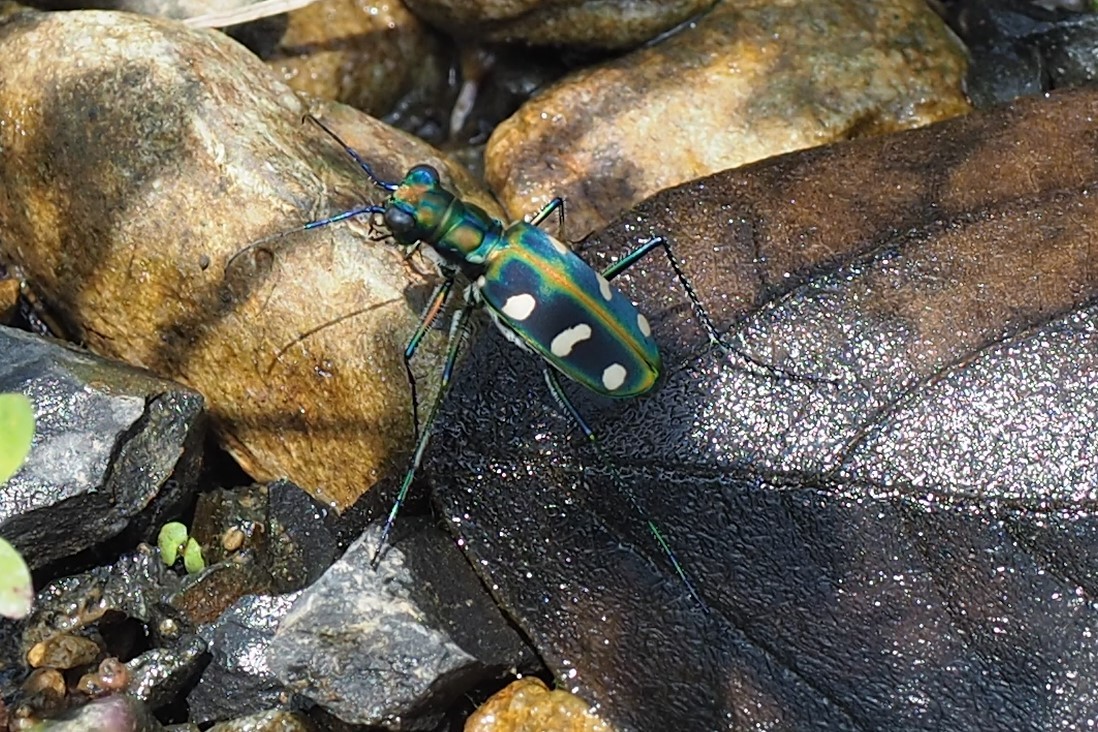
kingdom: Animalia
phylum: Arthropoda
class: Insecta
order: Coleoptera
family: Carabidae
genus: Cicindela
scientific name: Cicindela batesi
